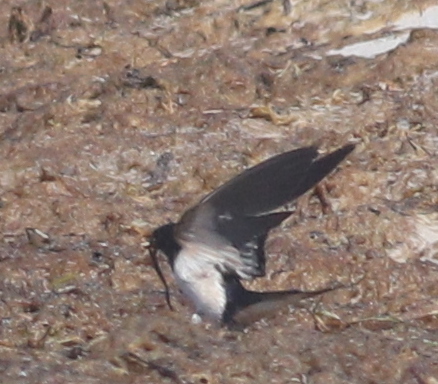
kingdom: Animalia
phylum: Chordata
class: Aves
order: Passeriformes
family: Hirundinidae
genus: Hirundo
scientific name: Hirundo rustica
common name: Barn swallow
